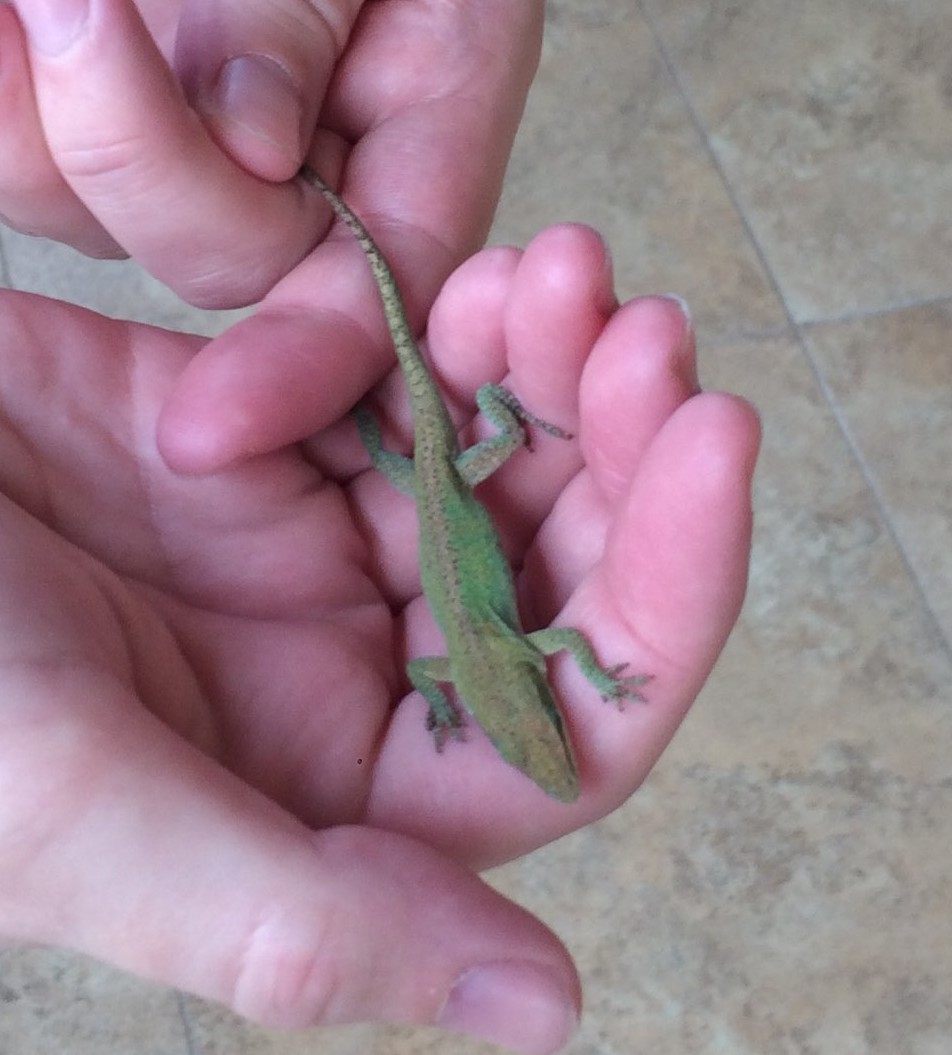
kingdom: Animalia
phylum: Chordata
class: Squamata
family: Dactyloidae
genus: Anolis
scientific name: Anolis carolinensis
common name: Green anole
